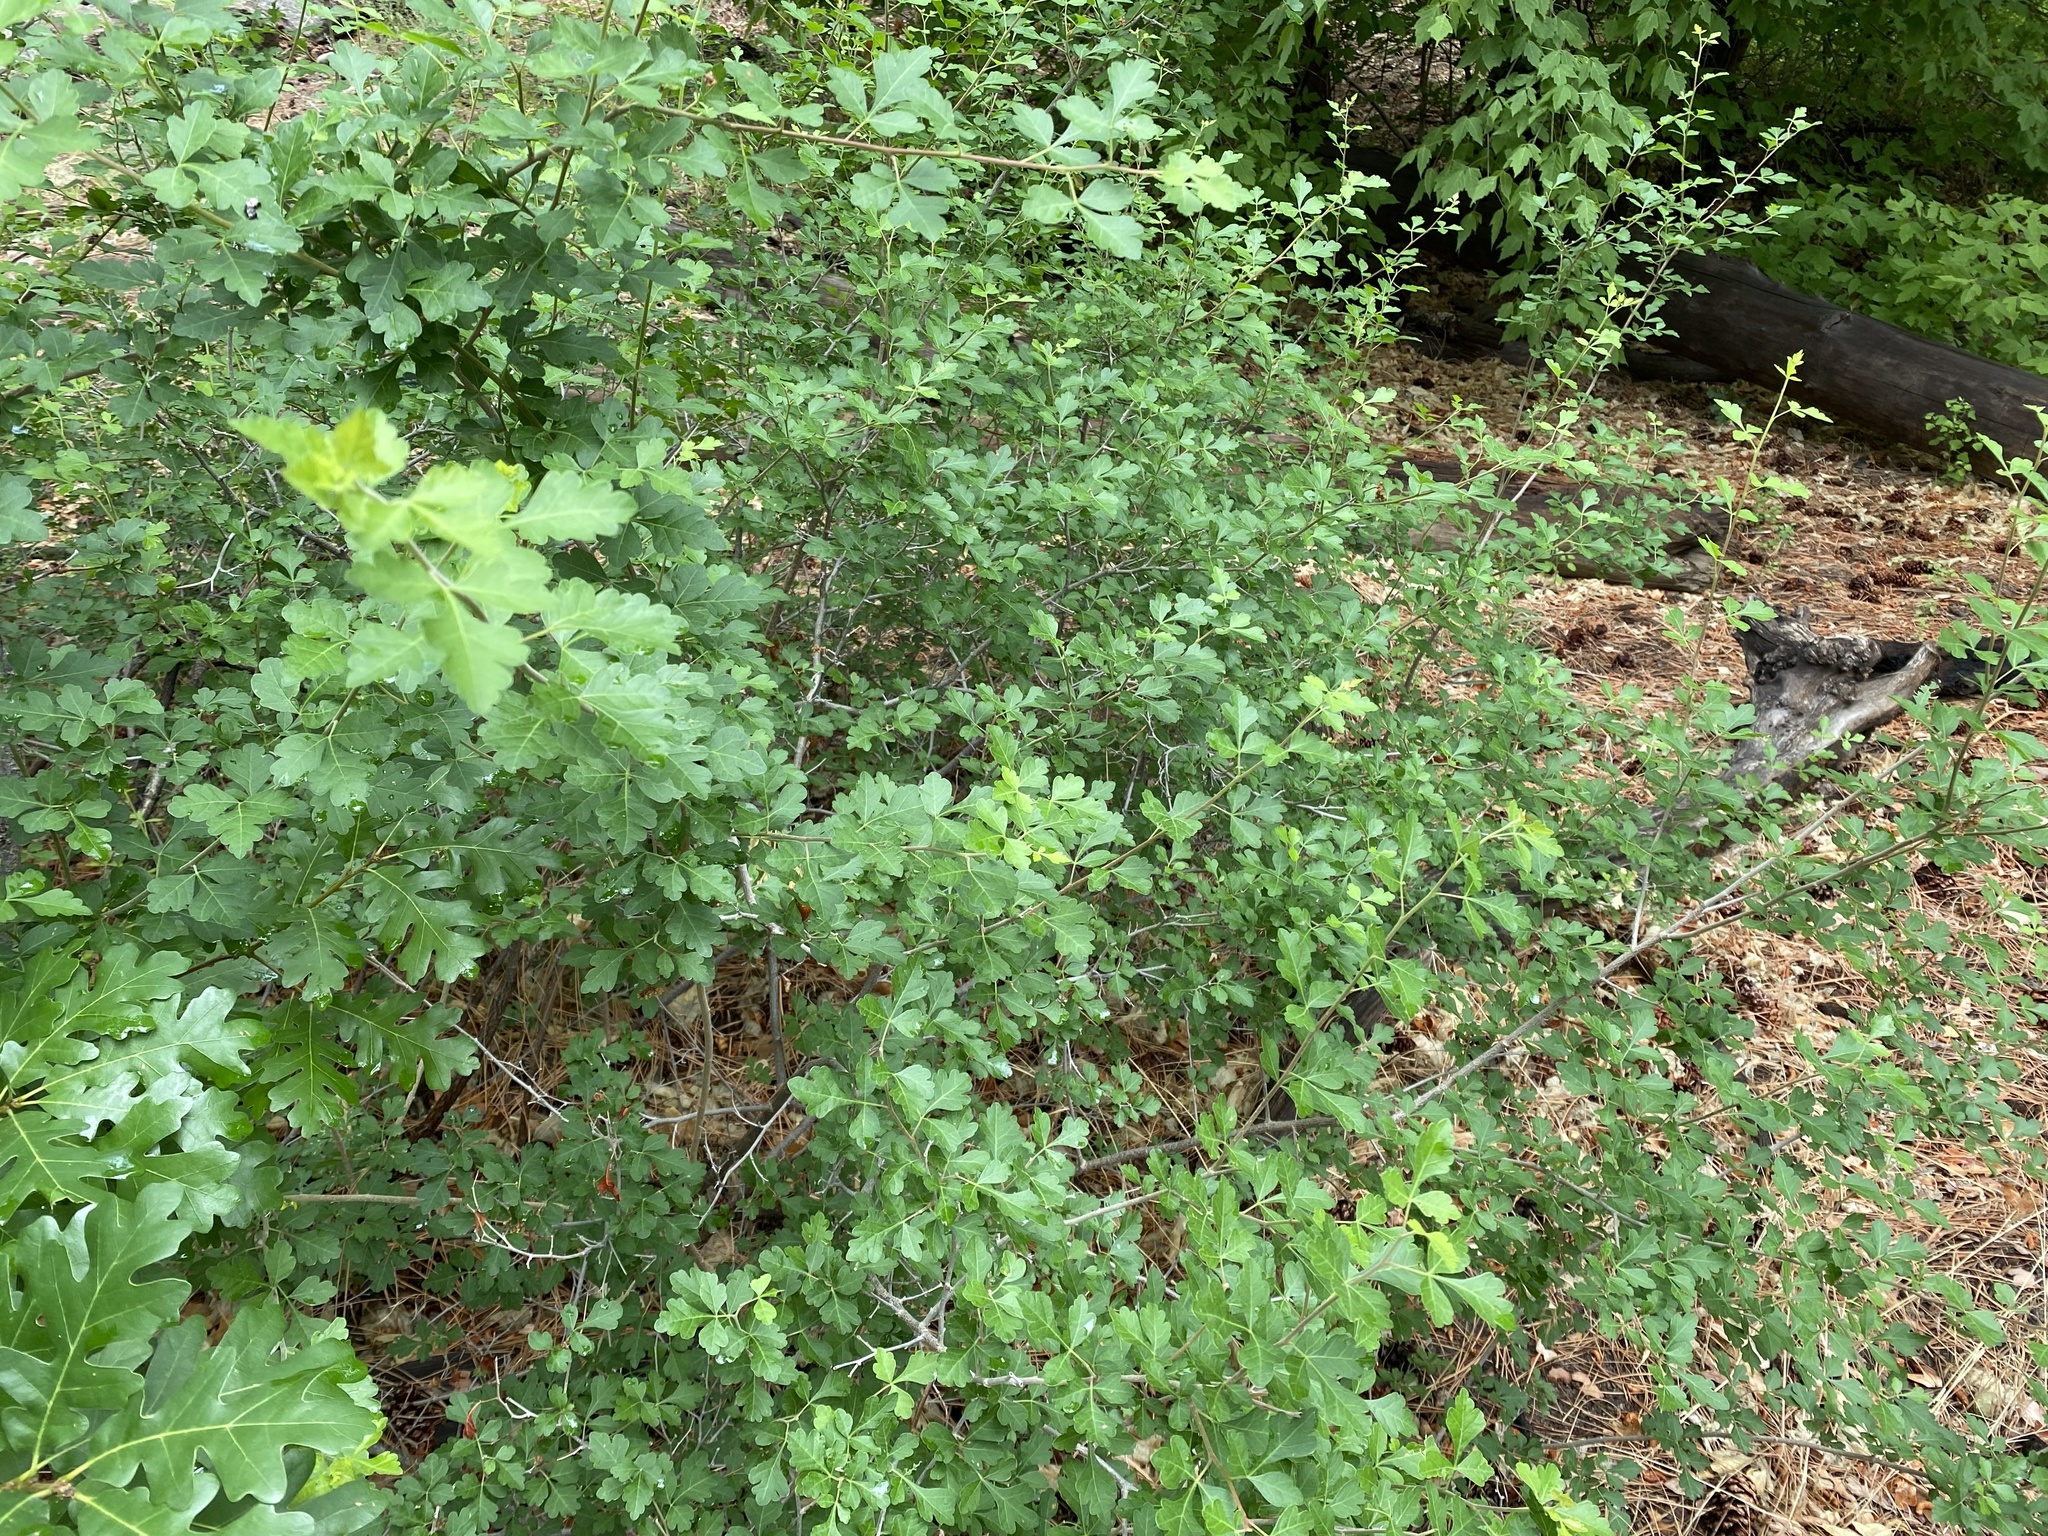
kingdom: Plantae
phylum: Tracheophyta
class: Magnoliopsida
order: Sapindales
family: Anacardiaceae
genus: Rhus
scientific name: Rhus trilobata
